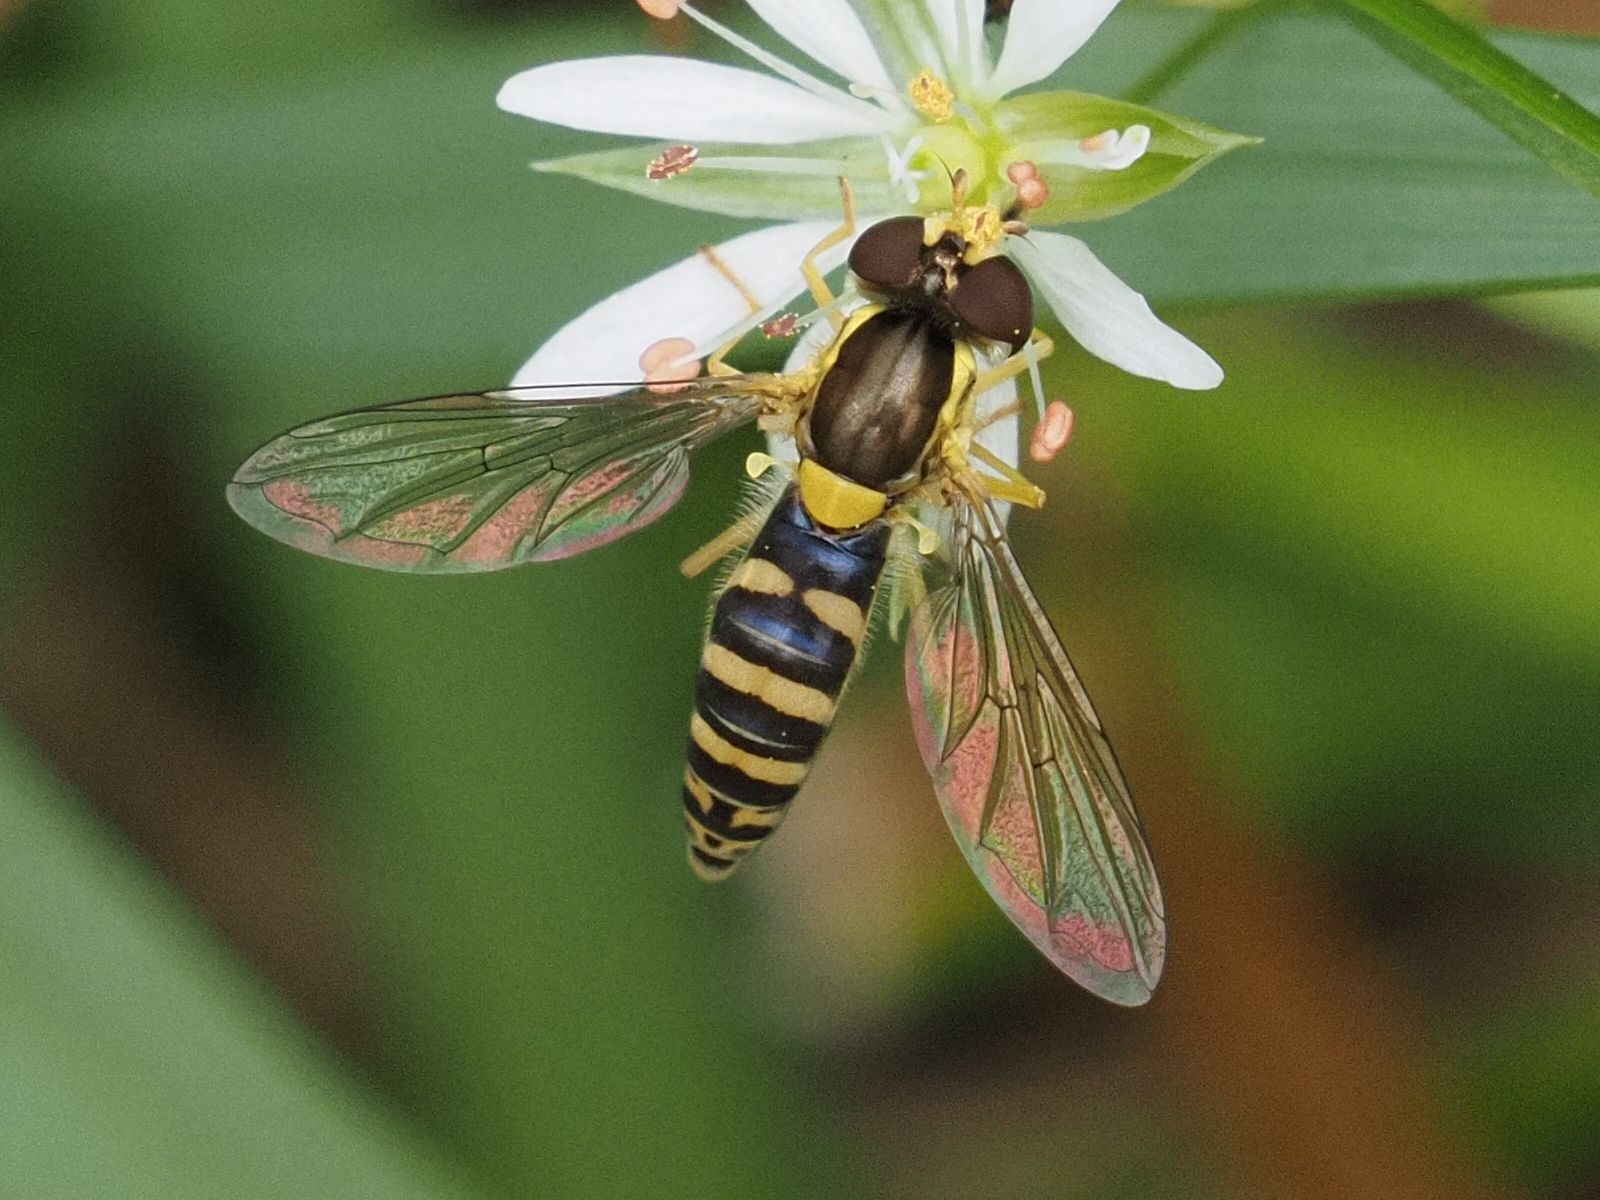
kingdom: Animalia
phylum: Arthropoda
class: Insecta
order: Diptera
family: Syrphidae
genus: Sphaerophoria
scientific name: Sphaerophoria
